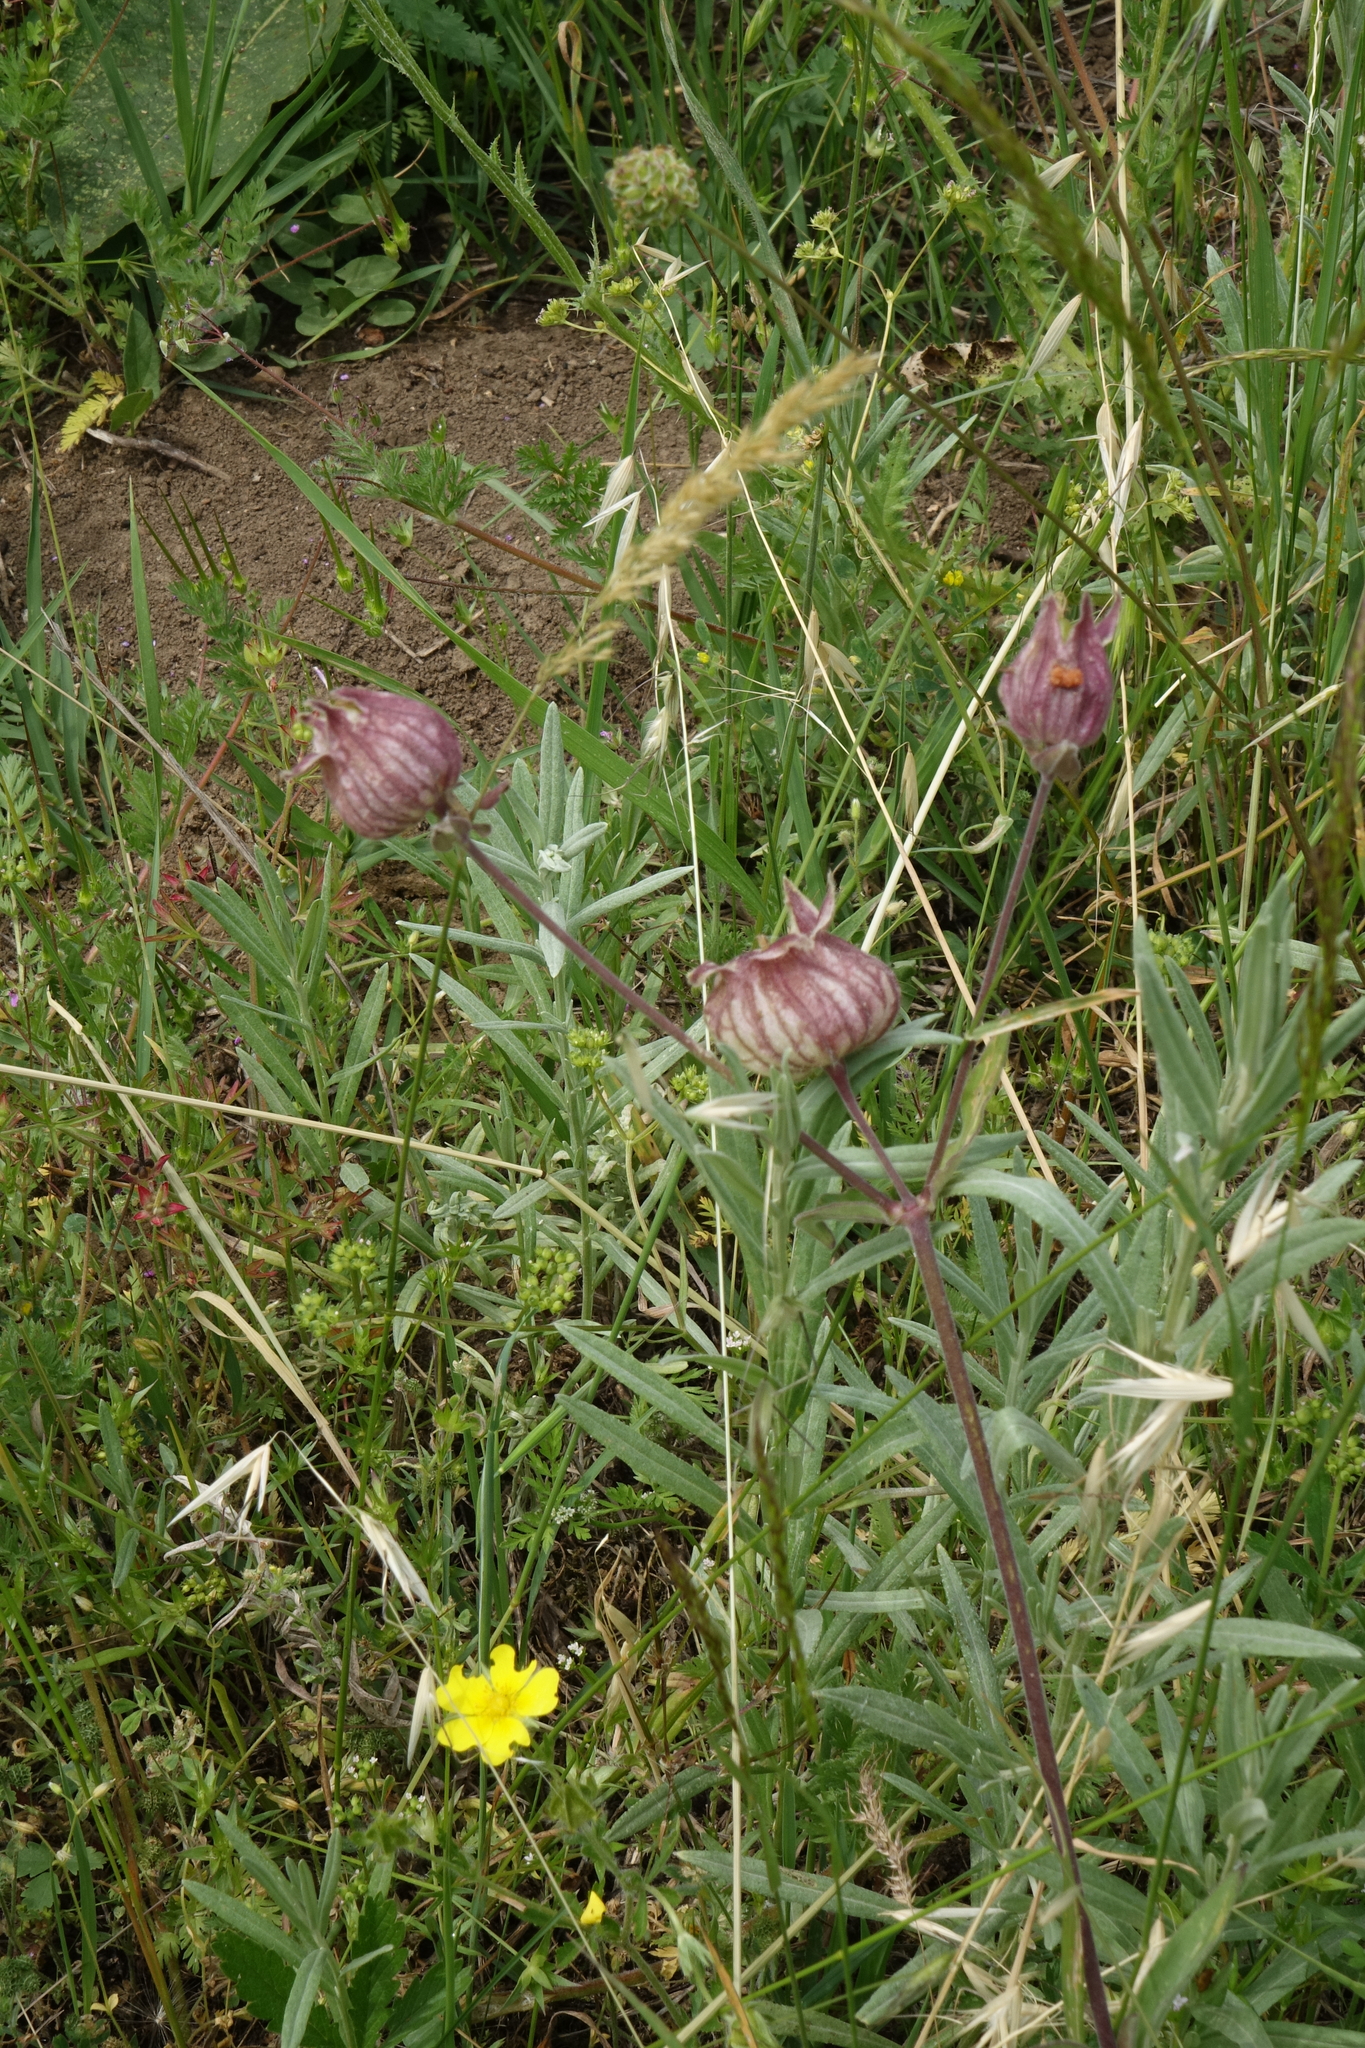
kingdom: Plantae
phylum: Tracheophyta
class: Magnoliopsida
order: Caryophyllales
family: Caryophyllaceae
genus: Silene
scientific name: Silene latifolia
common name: White campion
